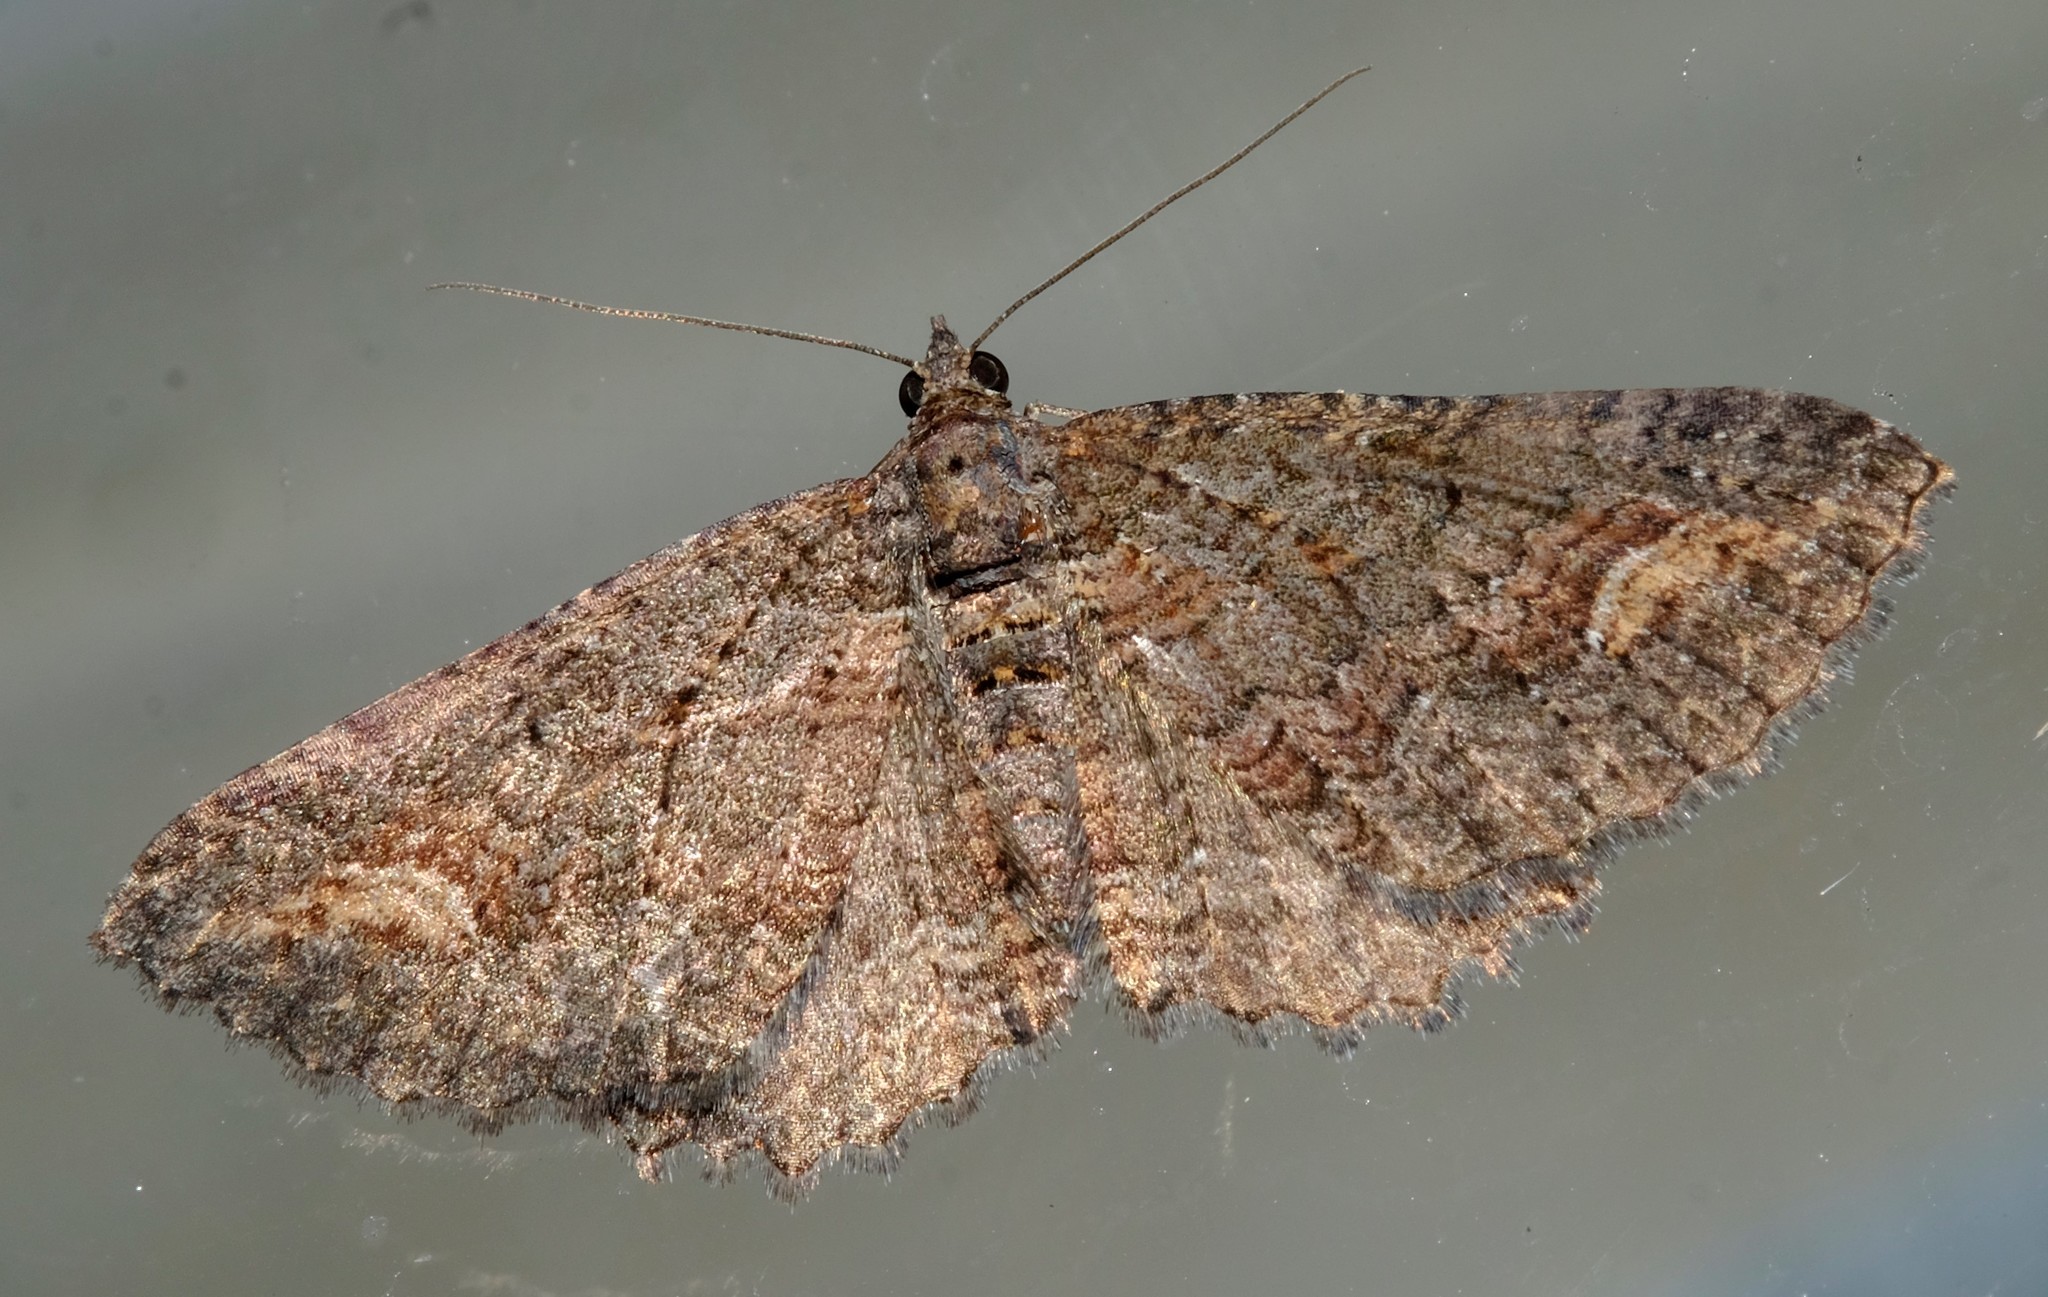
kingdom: Animalia
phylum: Arthropoda
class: Insecta
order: Lepidoptera
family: Geometridae
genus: Eupithecia
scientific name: Eupithecia Eucymatoge scotodes
